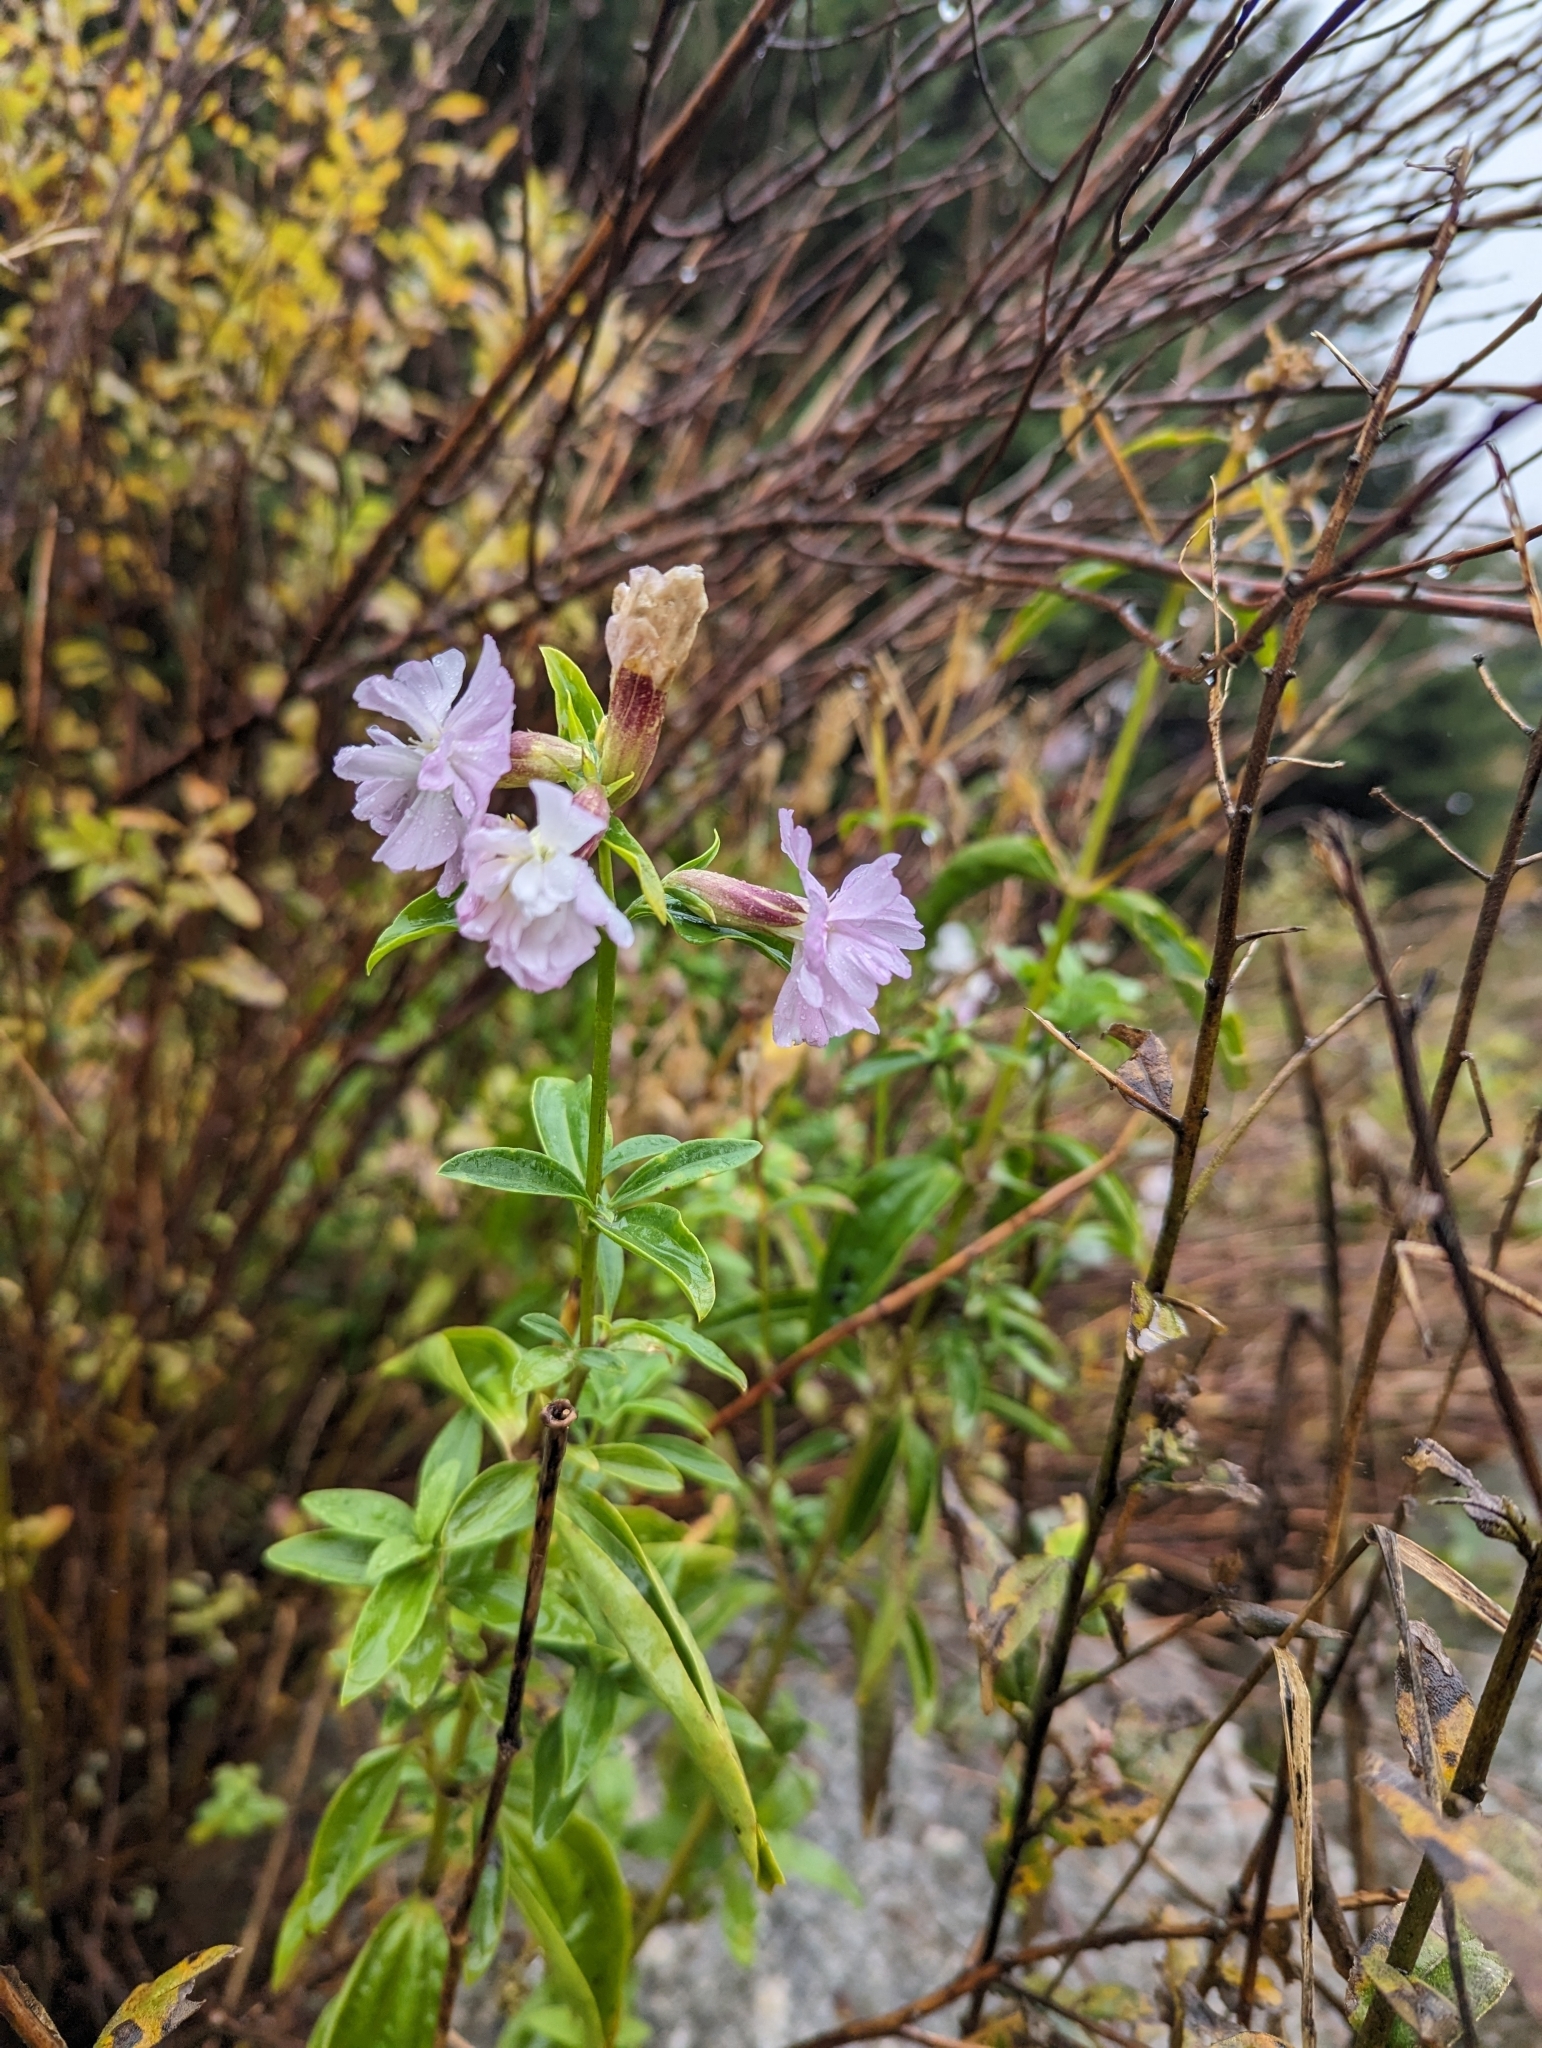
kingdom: Plantae
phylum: Tracheophyta
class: Magnoliopsida
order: Caryophyllales
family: Caryophyllaceae
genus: Saponaria
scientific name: Saponaria officinalis
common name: Soapwort
